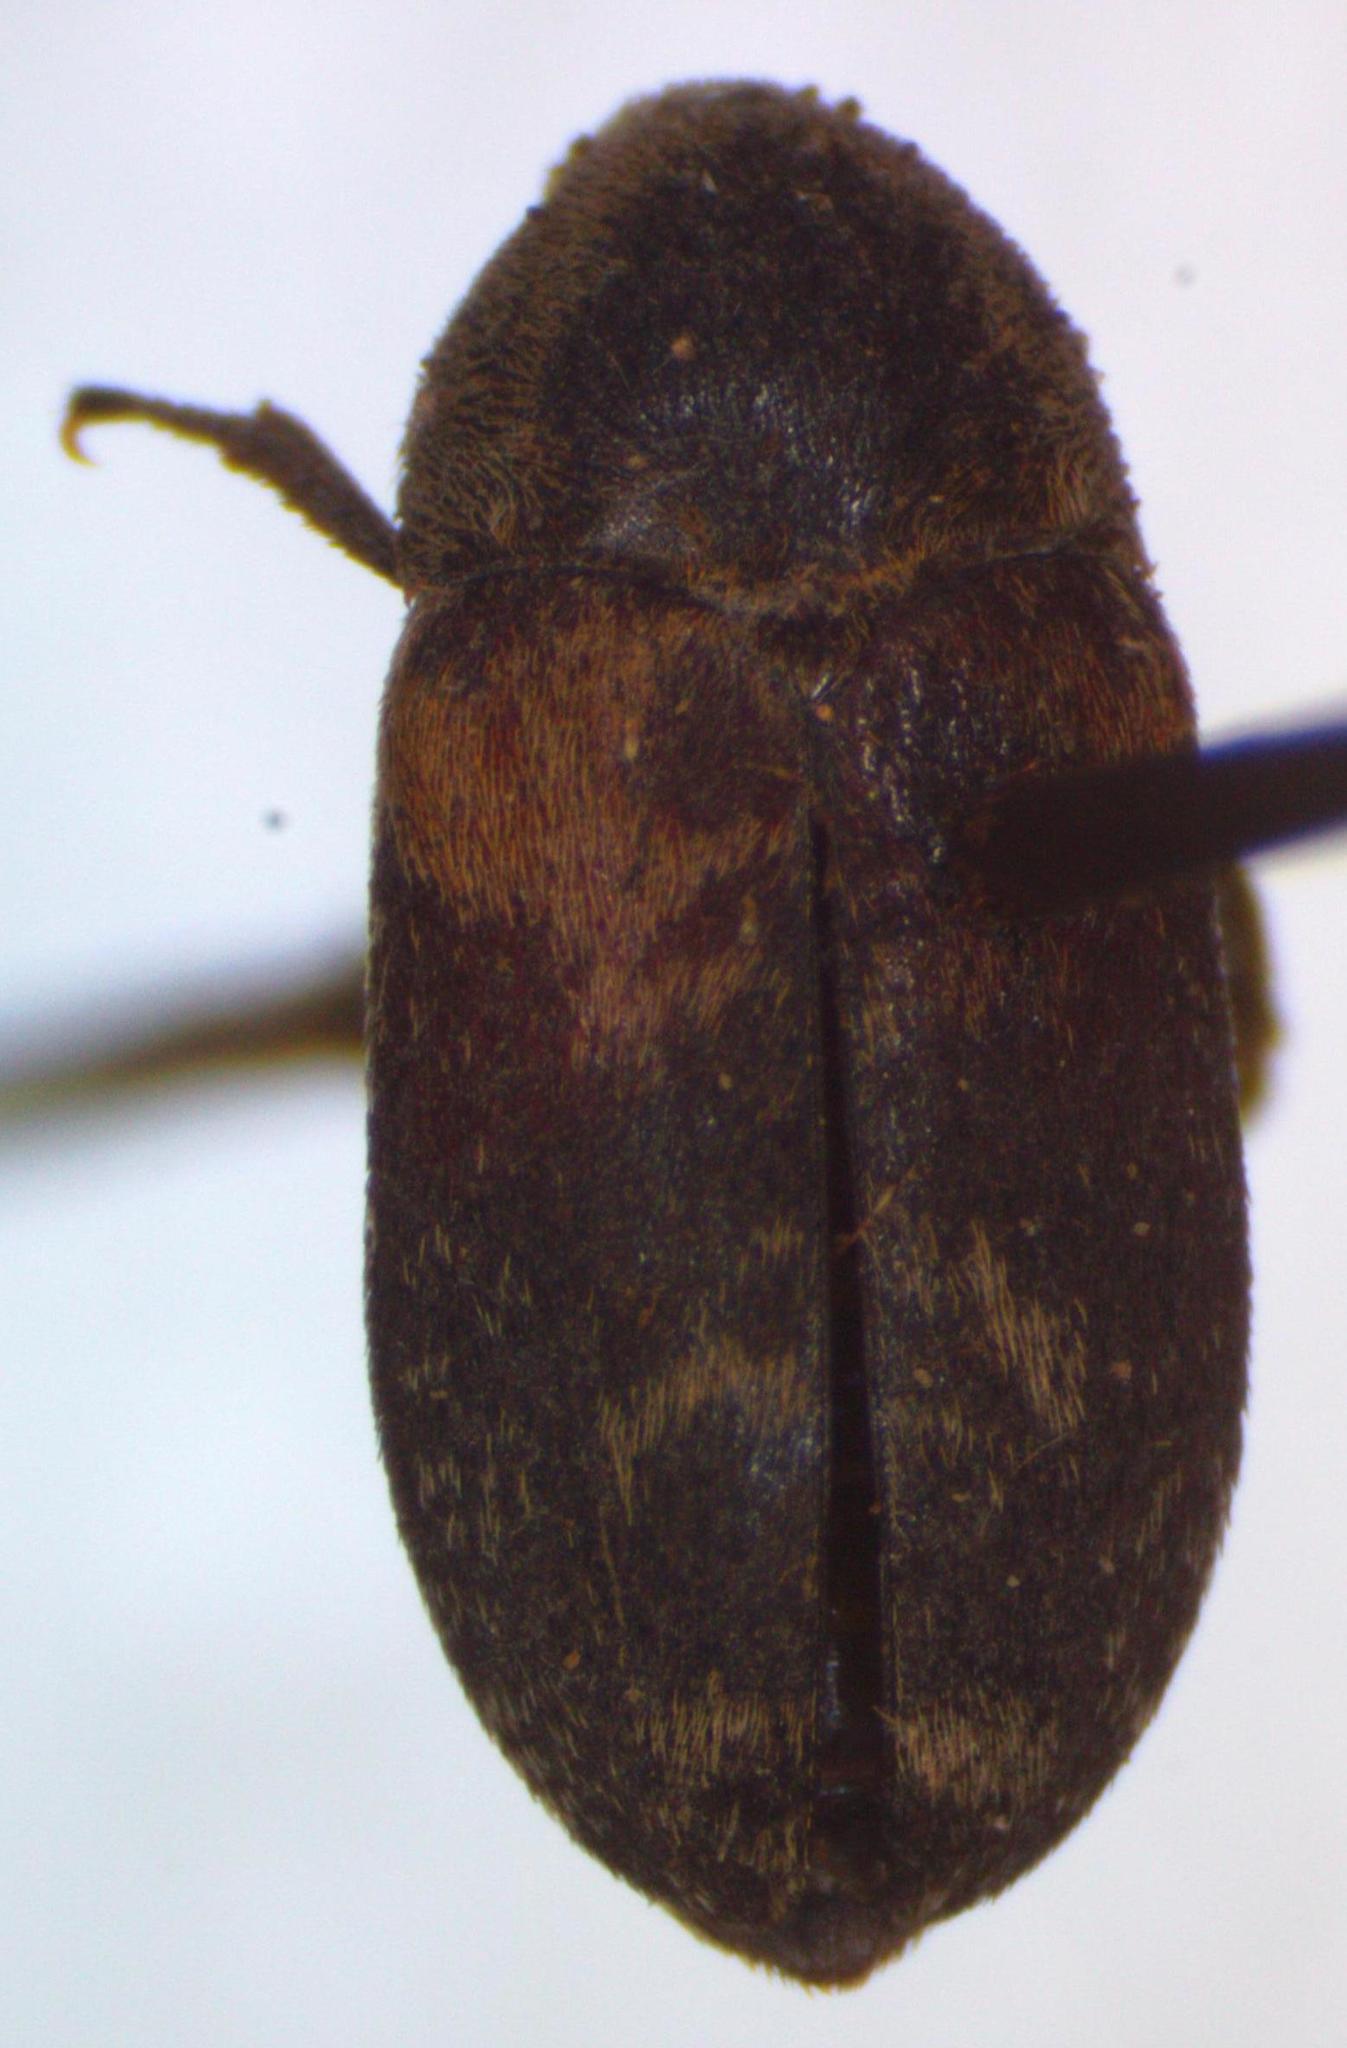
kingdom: Animalia
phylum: Arthropoda
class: Insecta
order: Coleoptera
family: Dermestidae
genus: Dermestes
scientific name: Dermestes carnivorus
